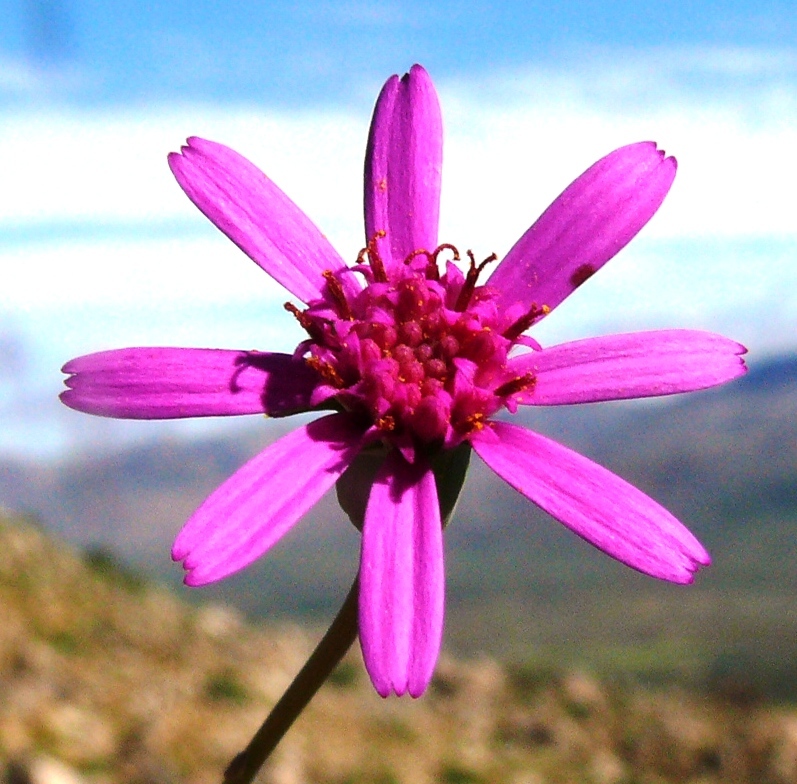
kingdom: Plantae
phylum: Tracheophyta
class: Magnoliopsida
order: Asterales
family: Asteraceae
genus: Senecio
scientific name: Senecio hastifolius
